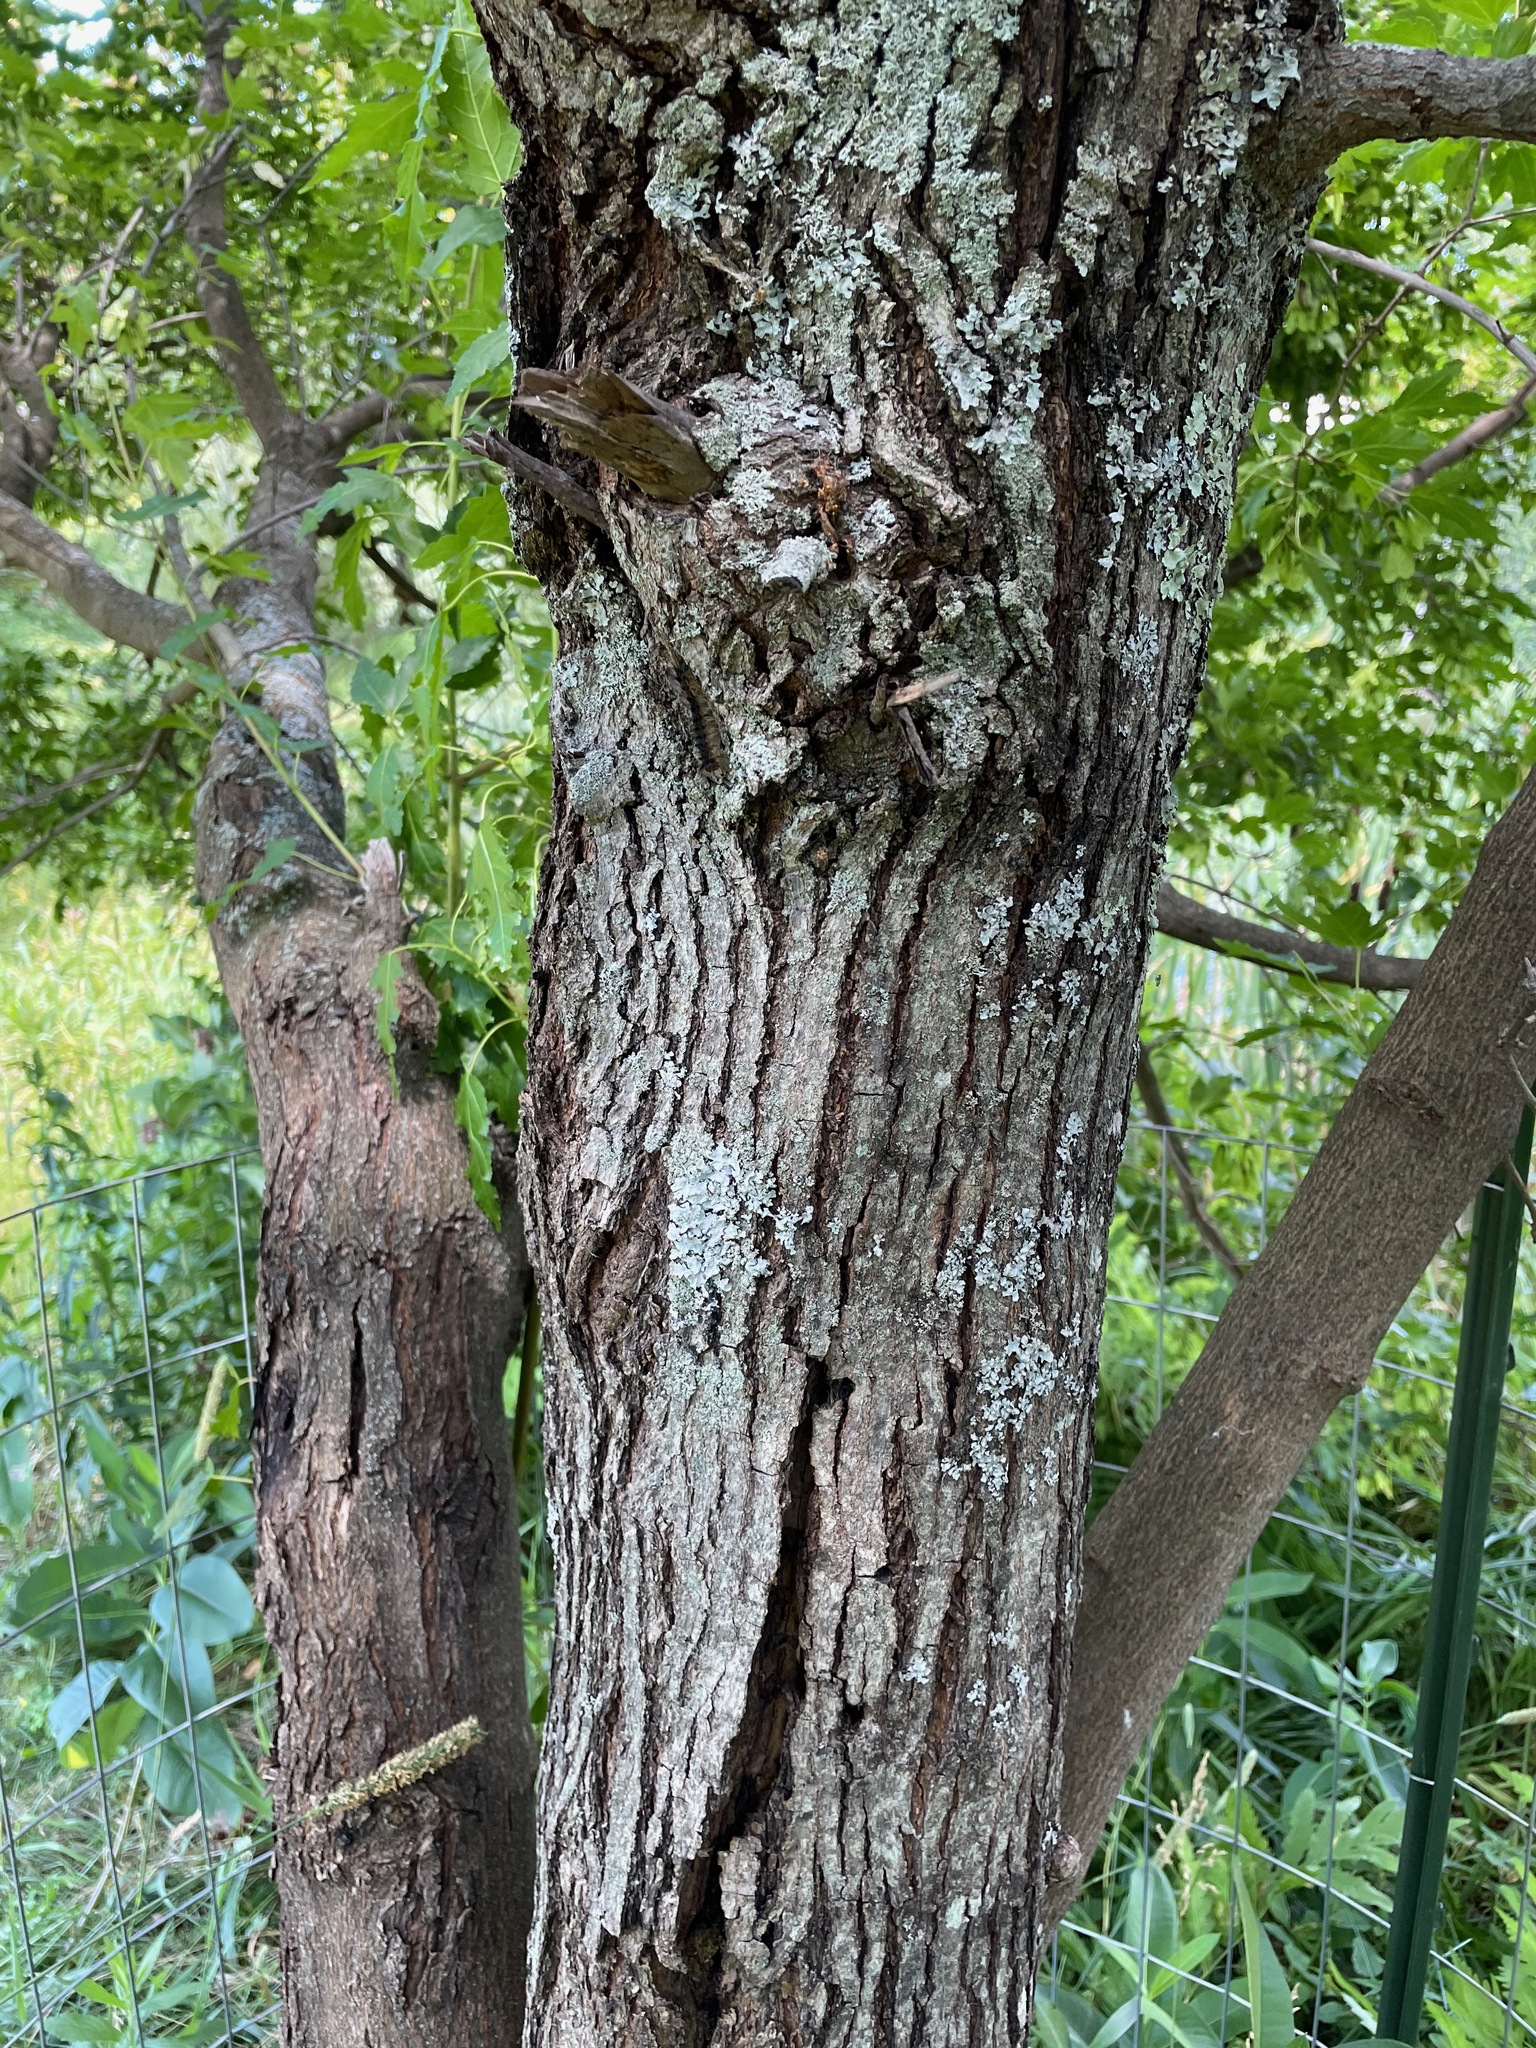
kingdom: Plantae
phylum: Tracheophyta
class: Magnoliopsida
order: Sapindales
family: Sapindaceae
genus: Acer
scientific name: Acer tataricum
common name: Tartar maple
